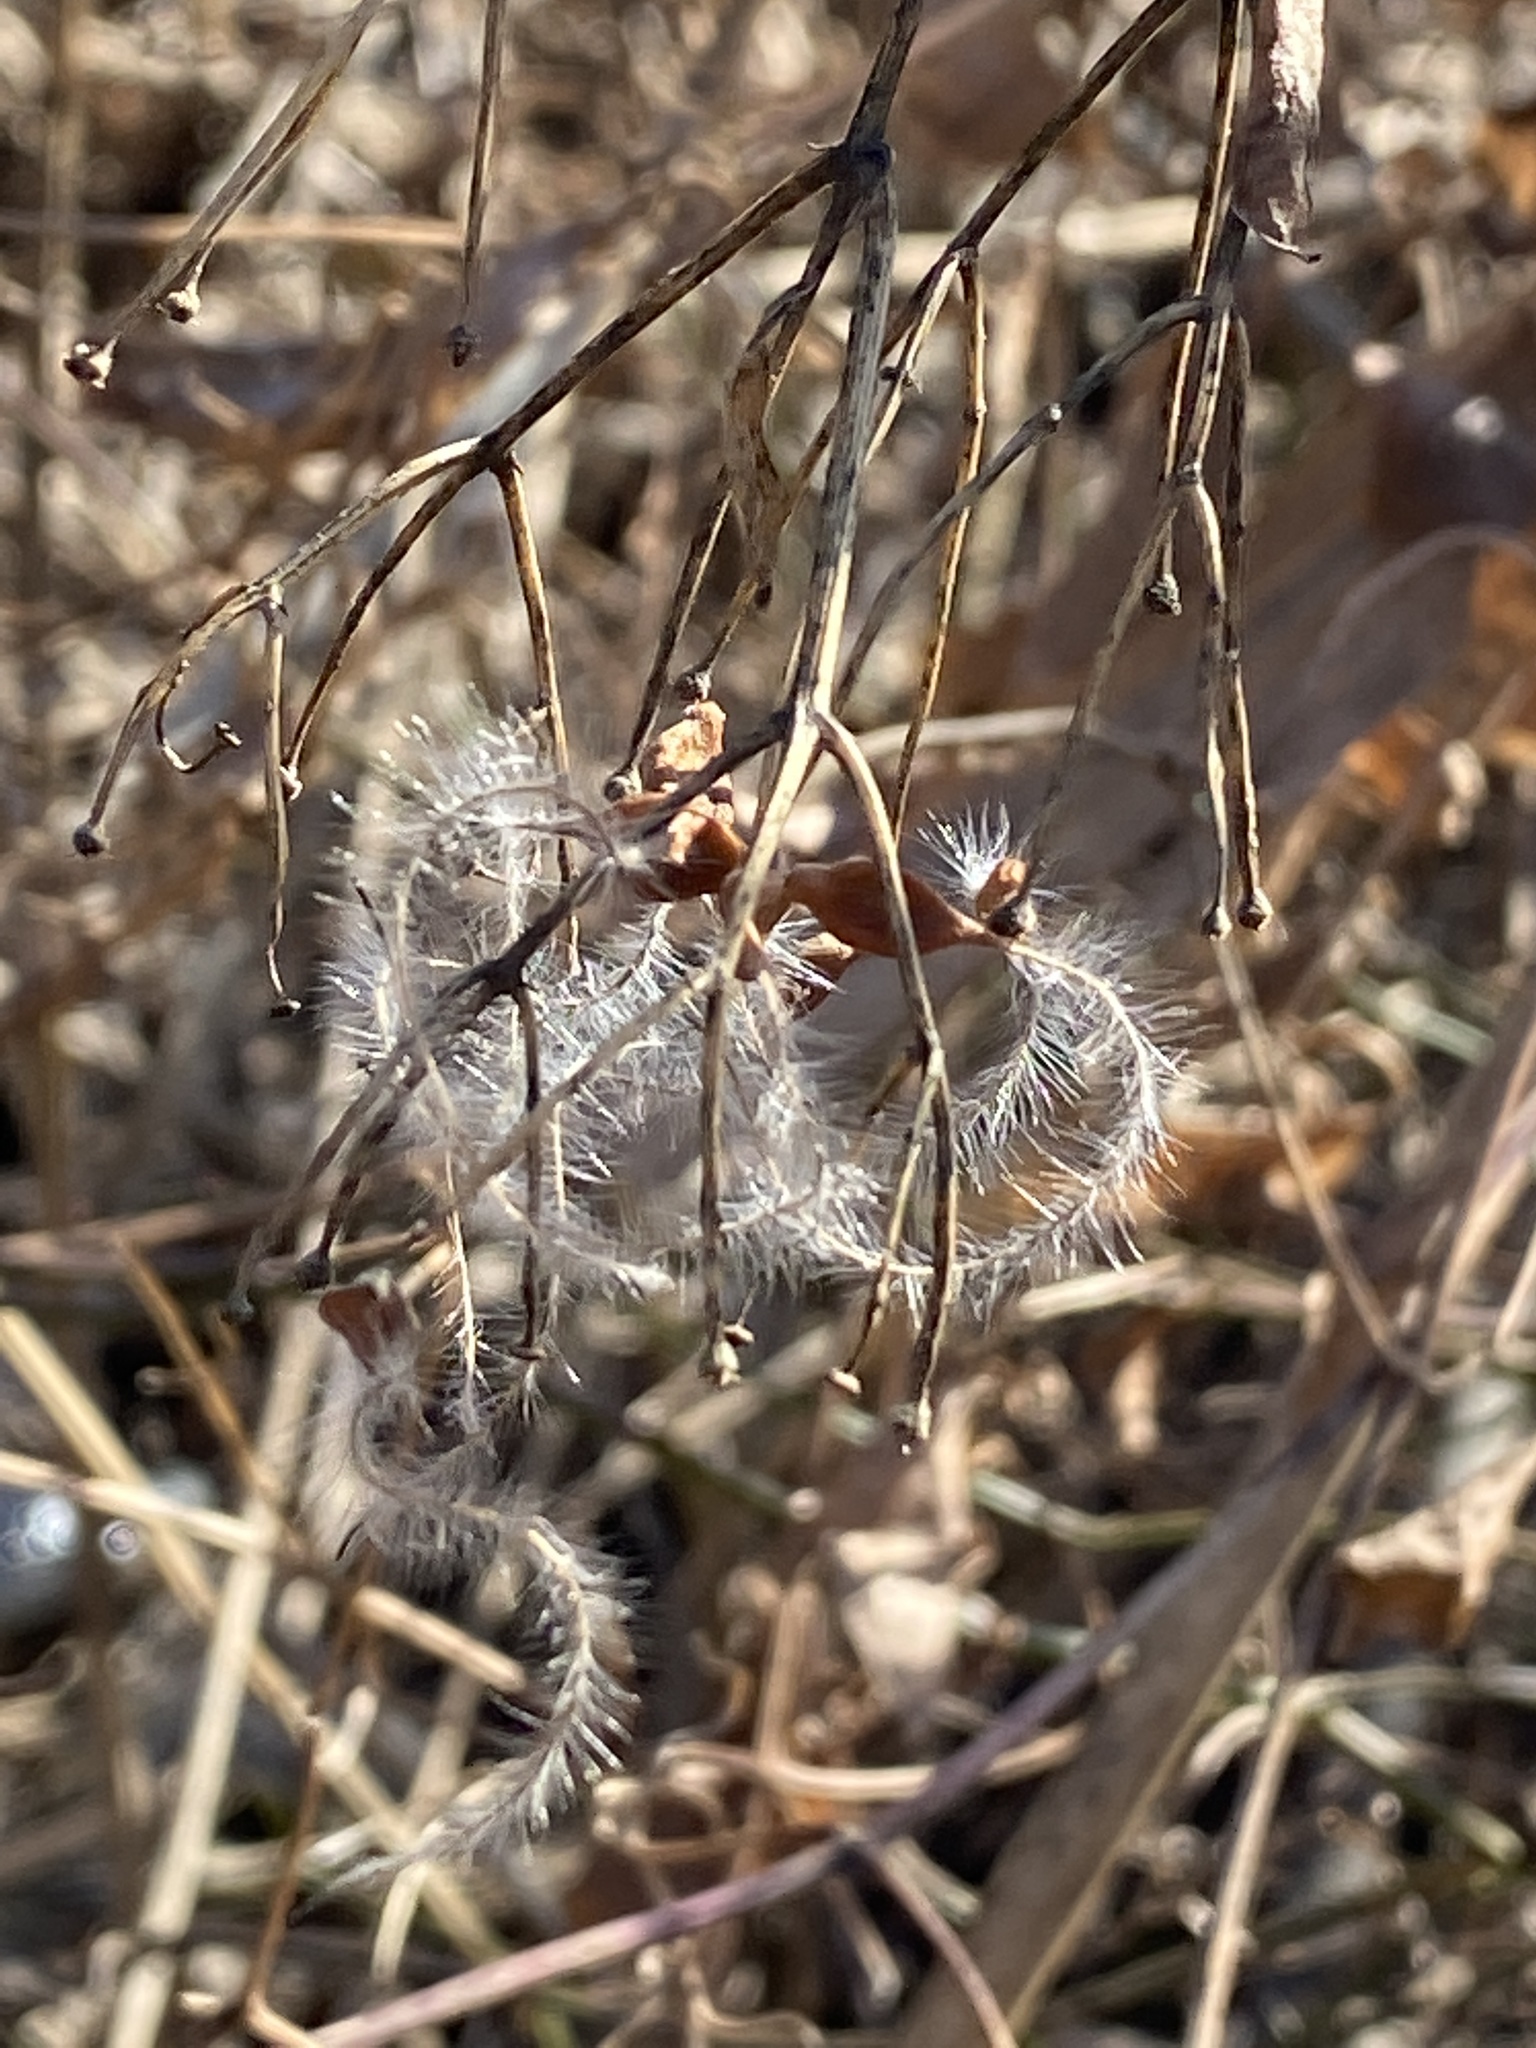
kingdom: Plantae
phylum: Tracheophyta
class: Magnoliopsida
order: Ranunculales
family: Ranunculaceae
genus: Clematis
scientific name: Clematis terniflora
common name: Sweet autumn clematis
